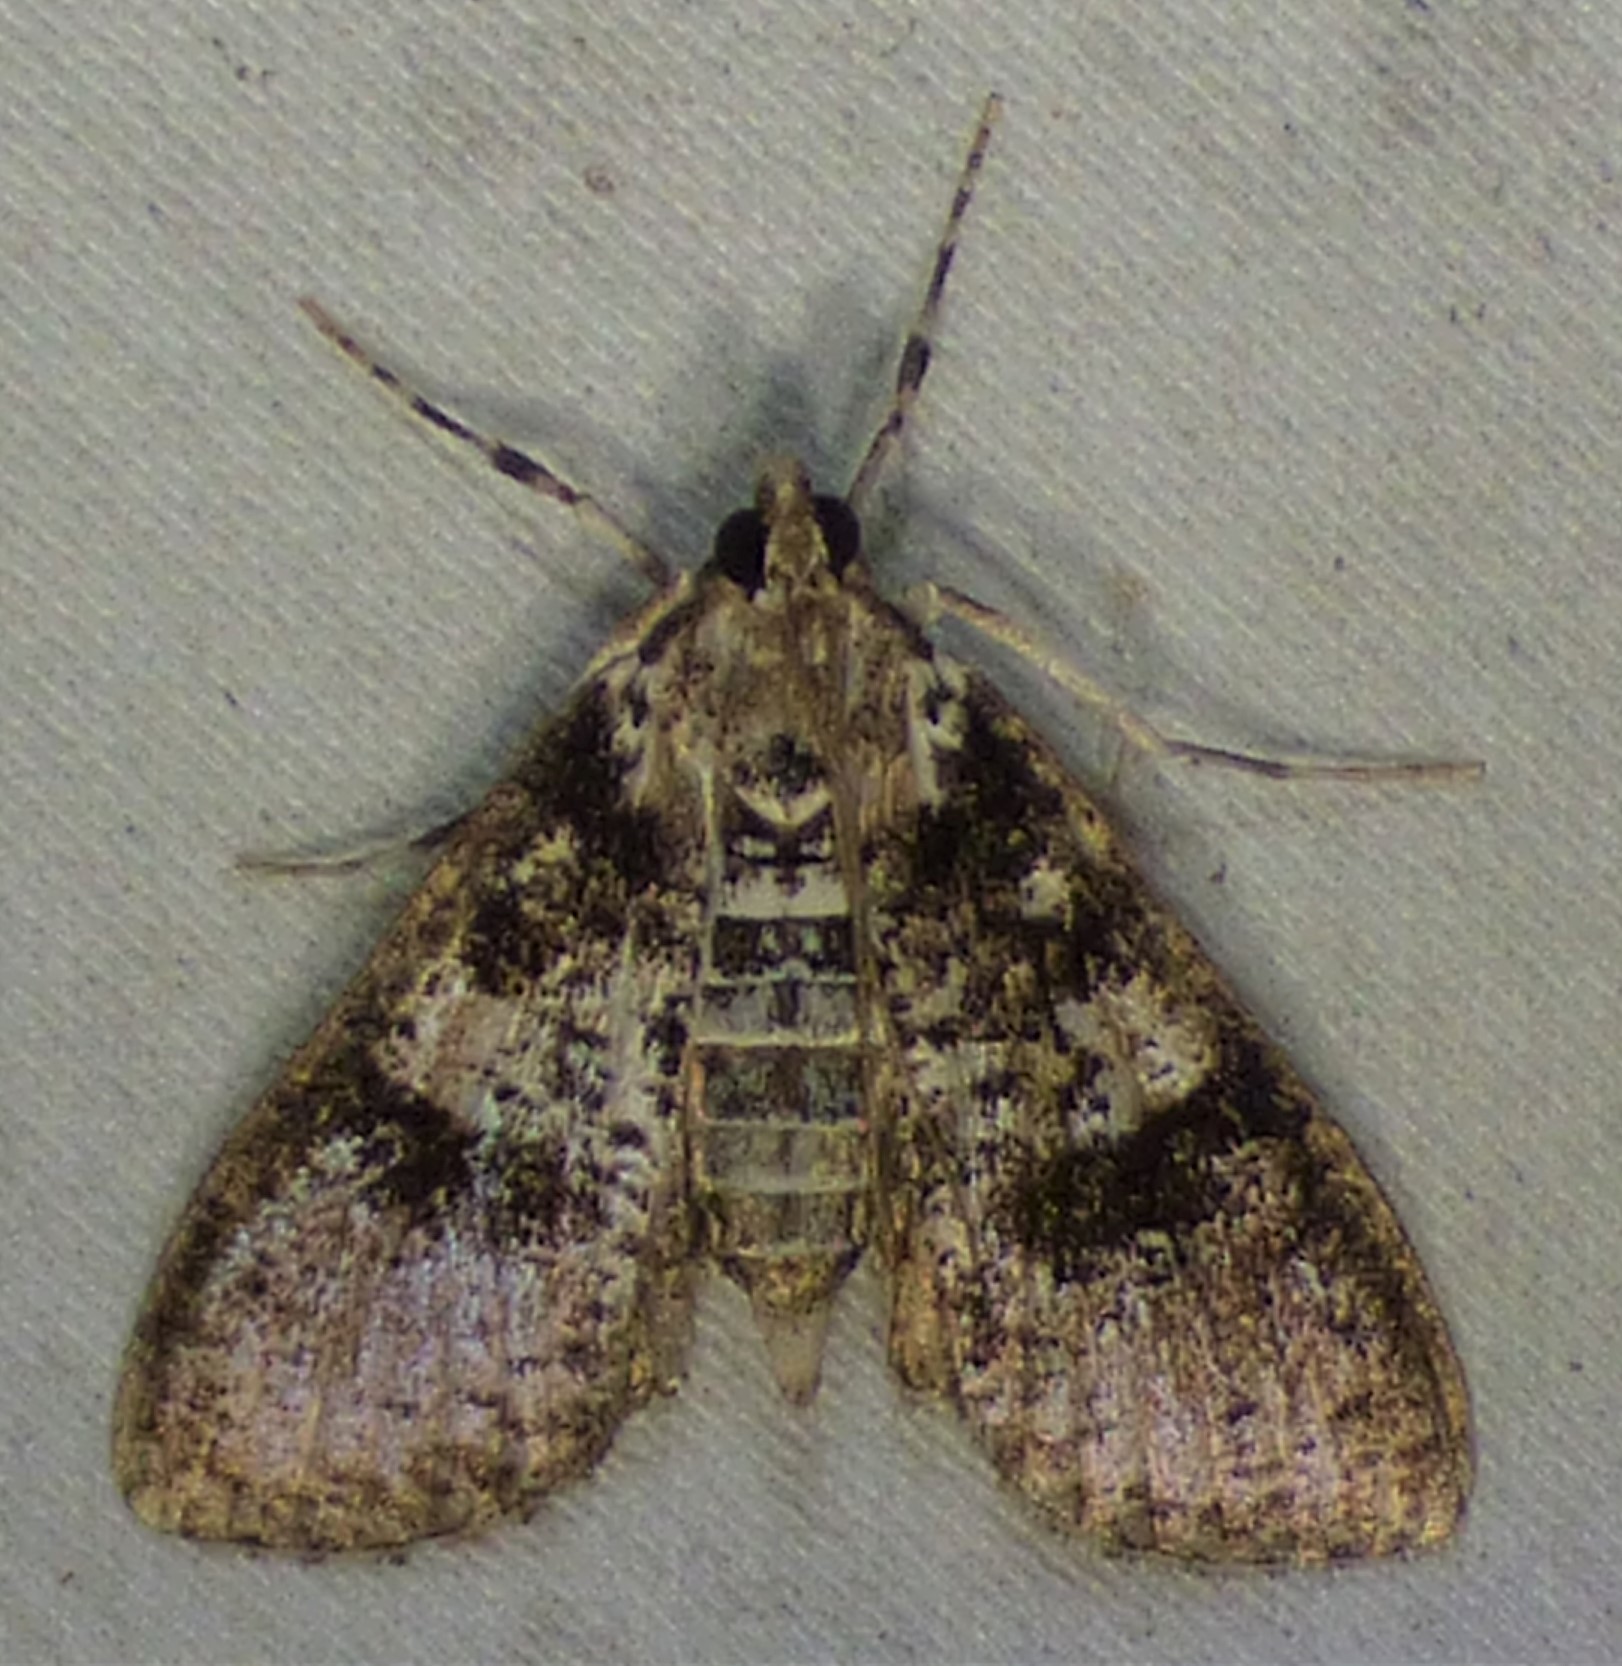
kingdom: Animalia
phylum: Arthropoda
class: Insecta
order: Lepidoptera
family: Crambidae
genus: Palpita
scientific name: Palpita magniferalis
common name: Splendid palpita moth
